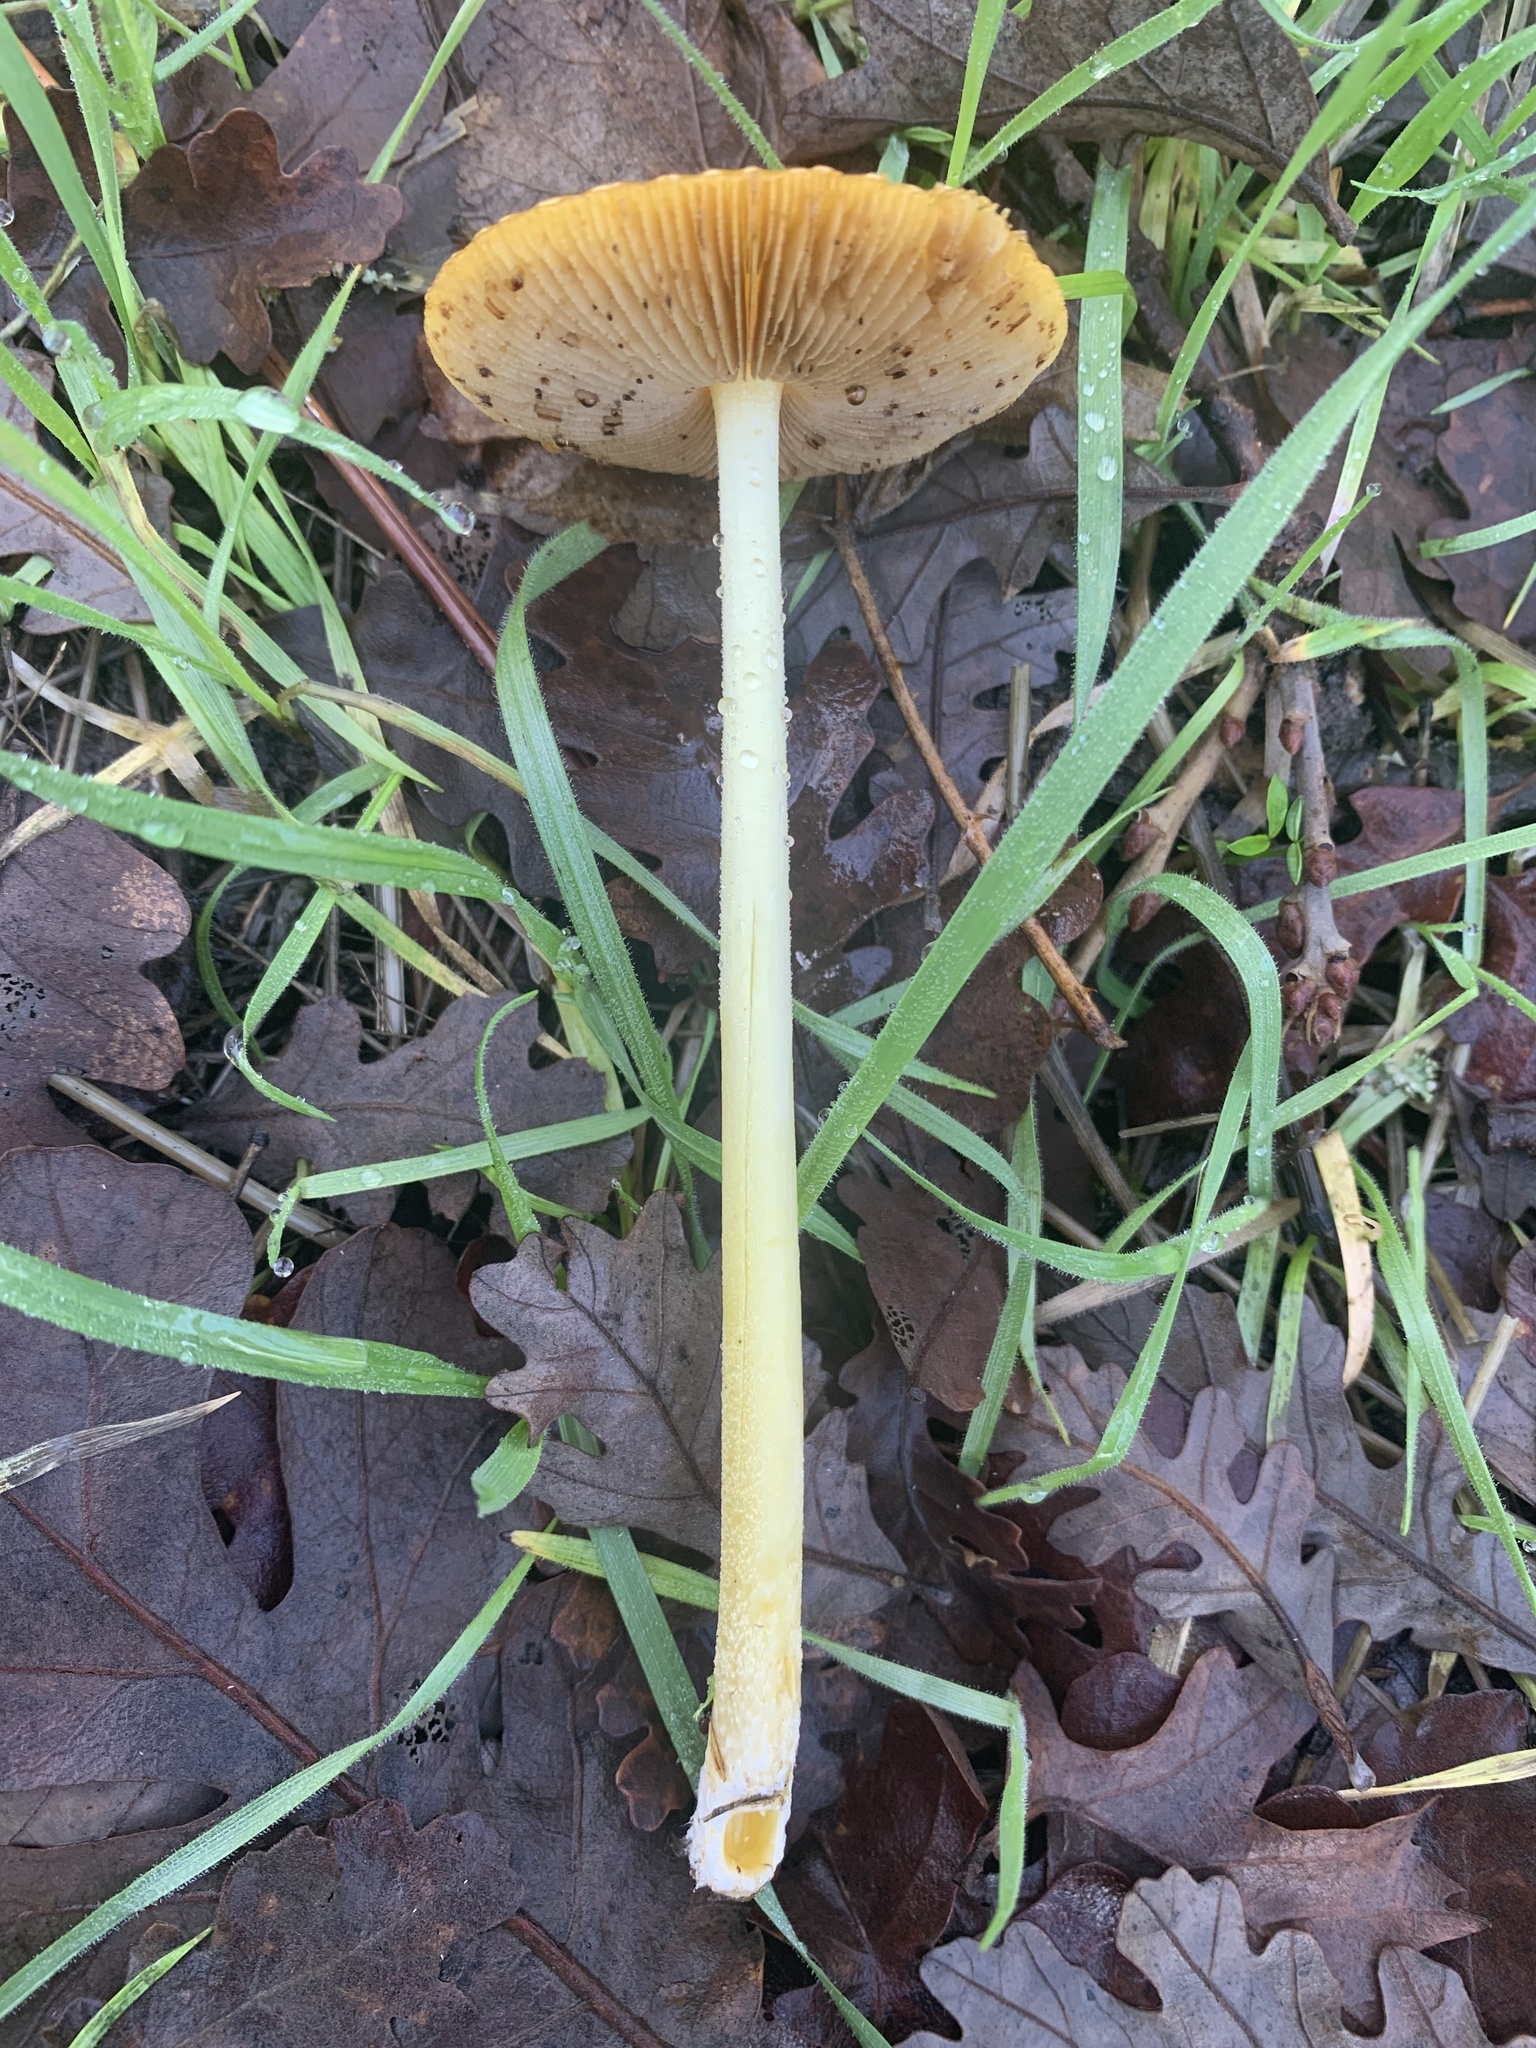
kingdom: Fungi
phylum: Basidiomycota
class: Agaricomycetes
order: Agaricales
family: Bolbitiaceae
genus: Bolbitius
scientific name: Bolbitius titubans
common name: Yellow fieldcap
